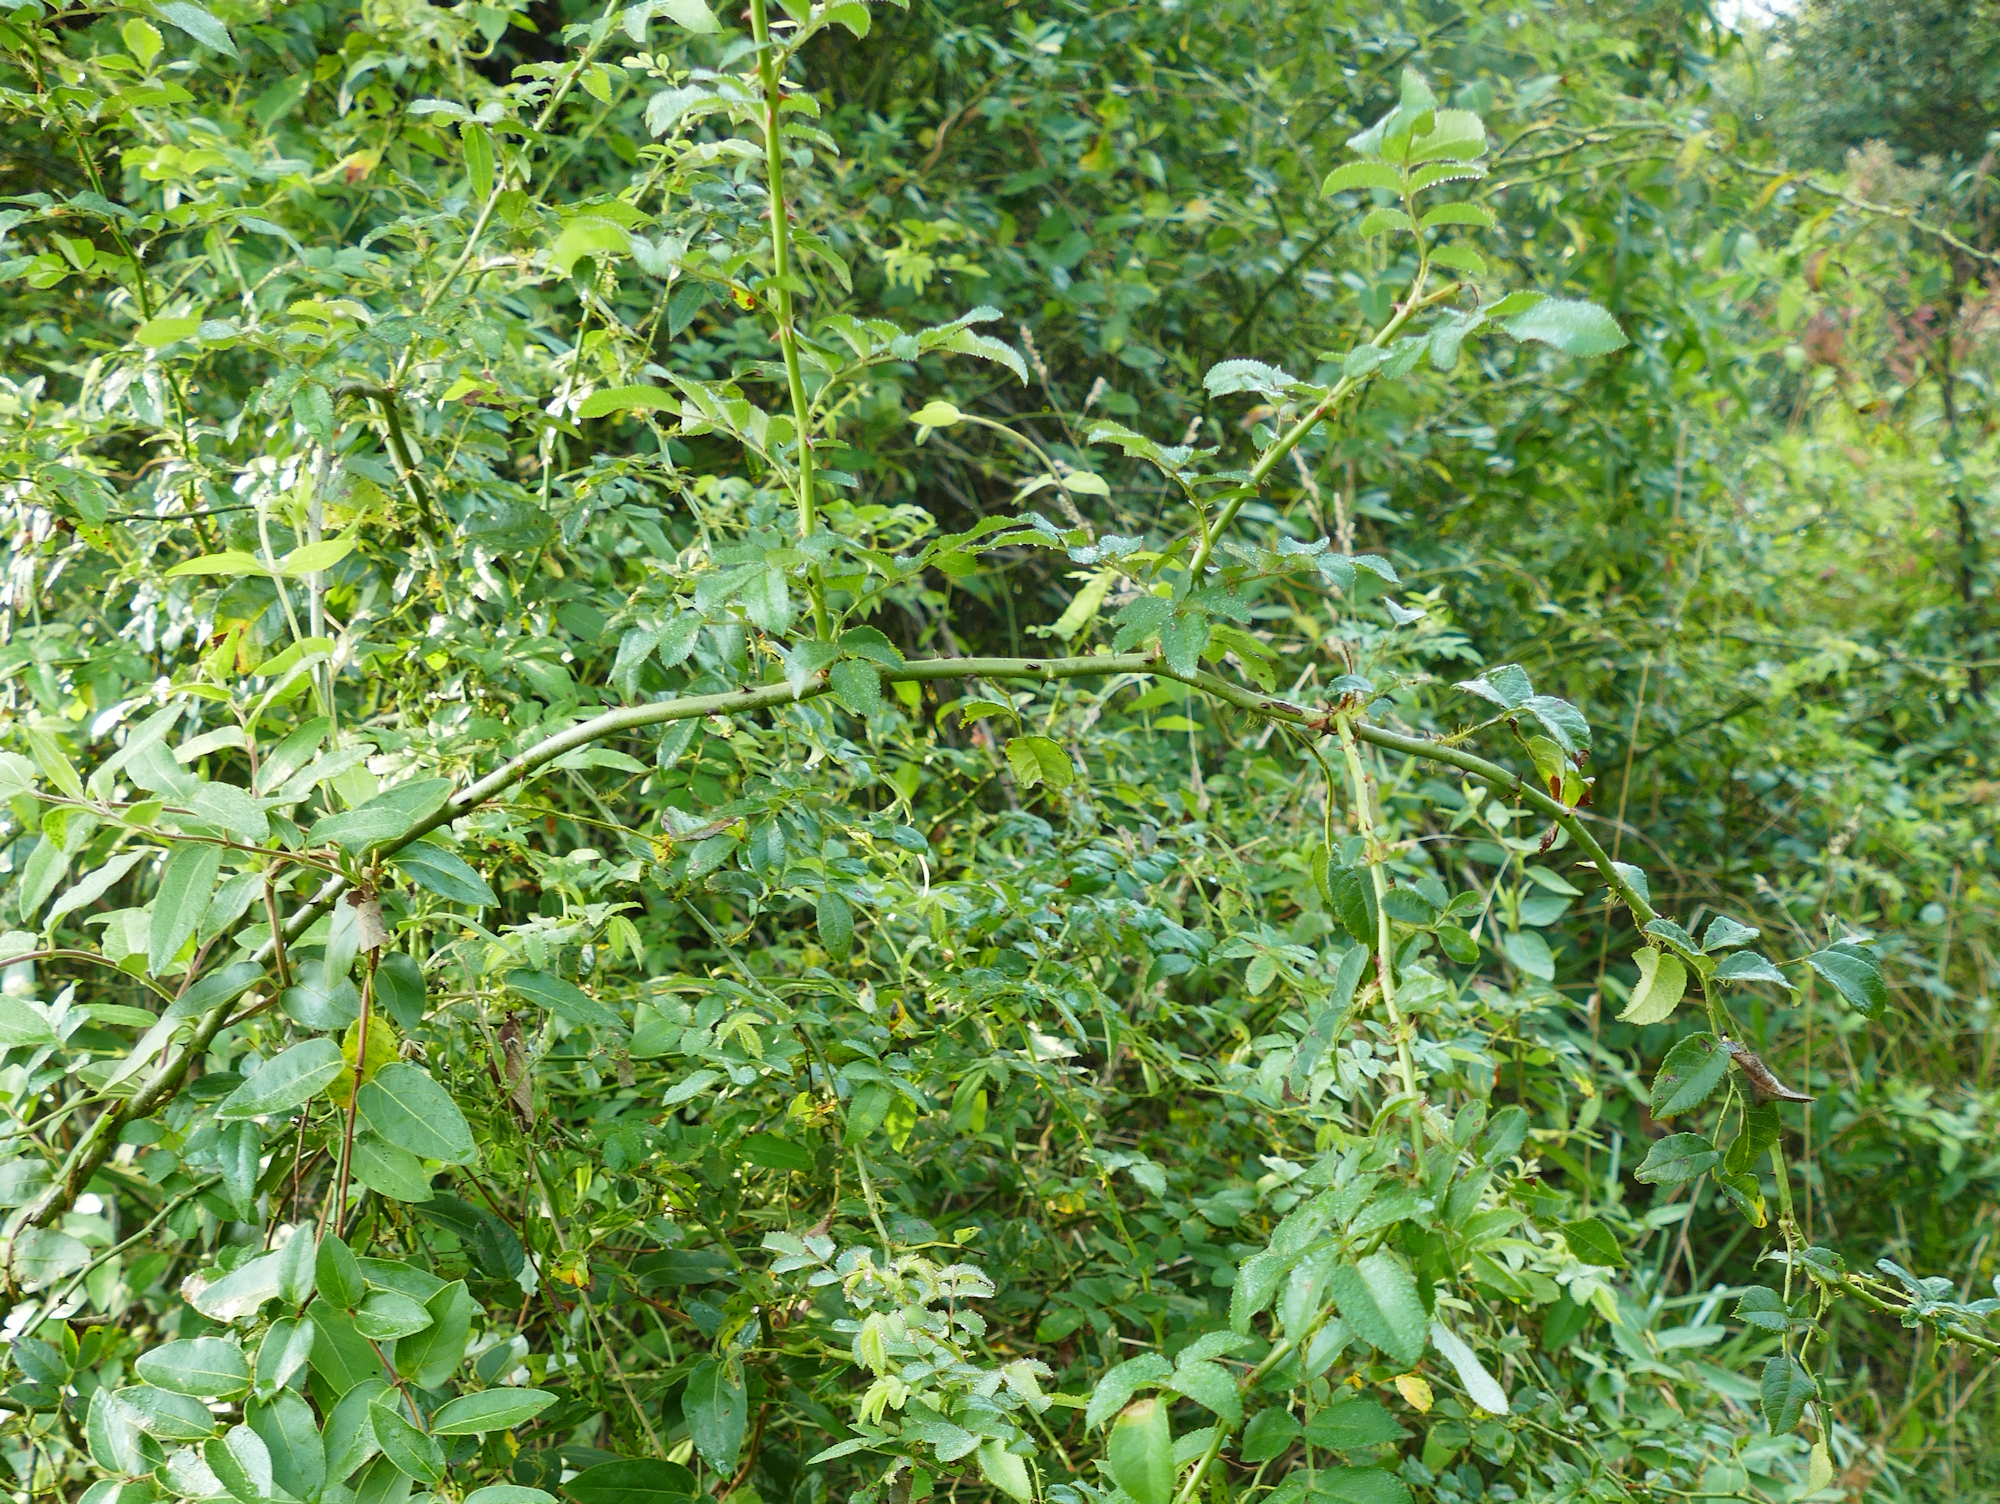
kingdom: Plantae
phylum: Tracheophyta
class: Magnoliopsida
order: Rosales
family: Rosaceae
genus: Rosa
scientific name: Rosa multiflora
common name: Multiflora rose
